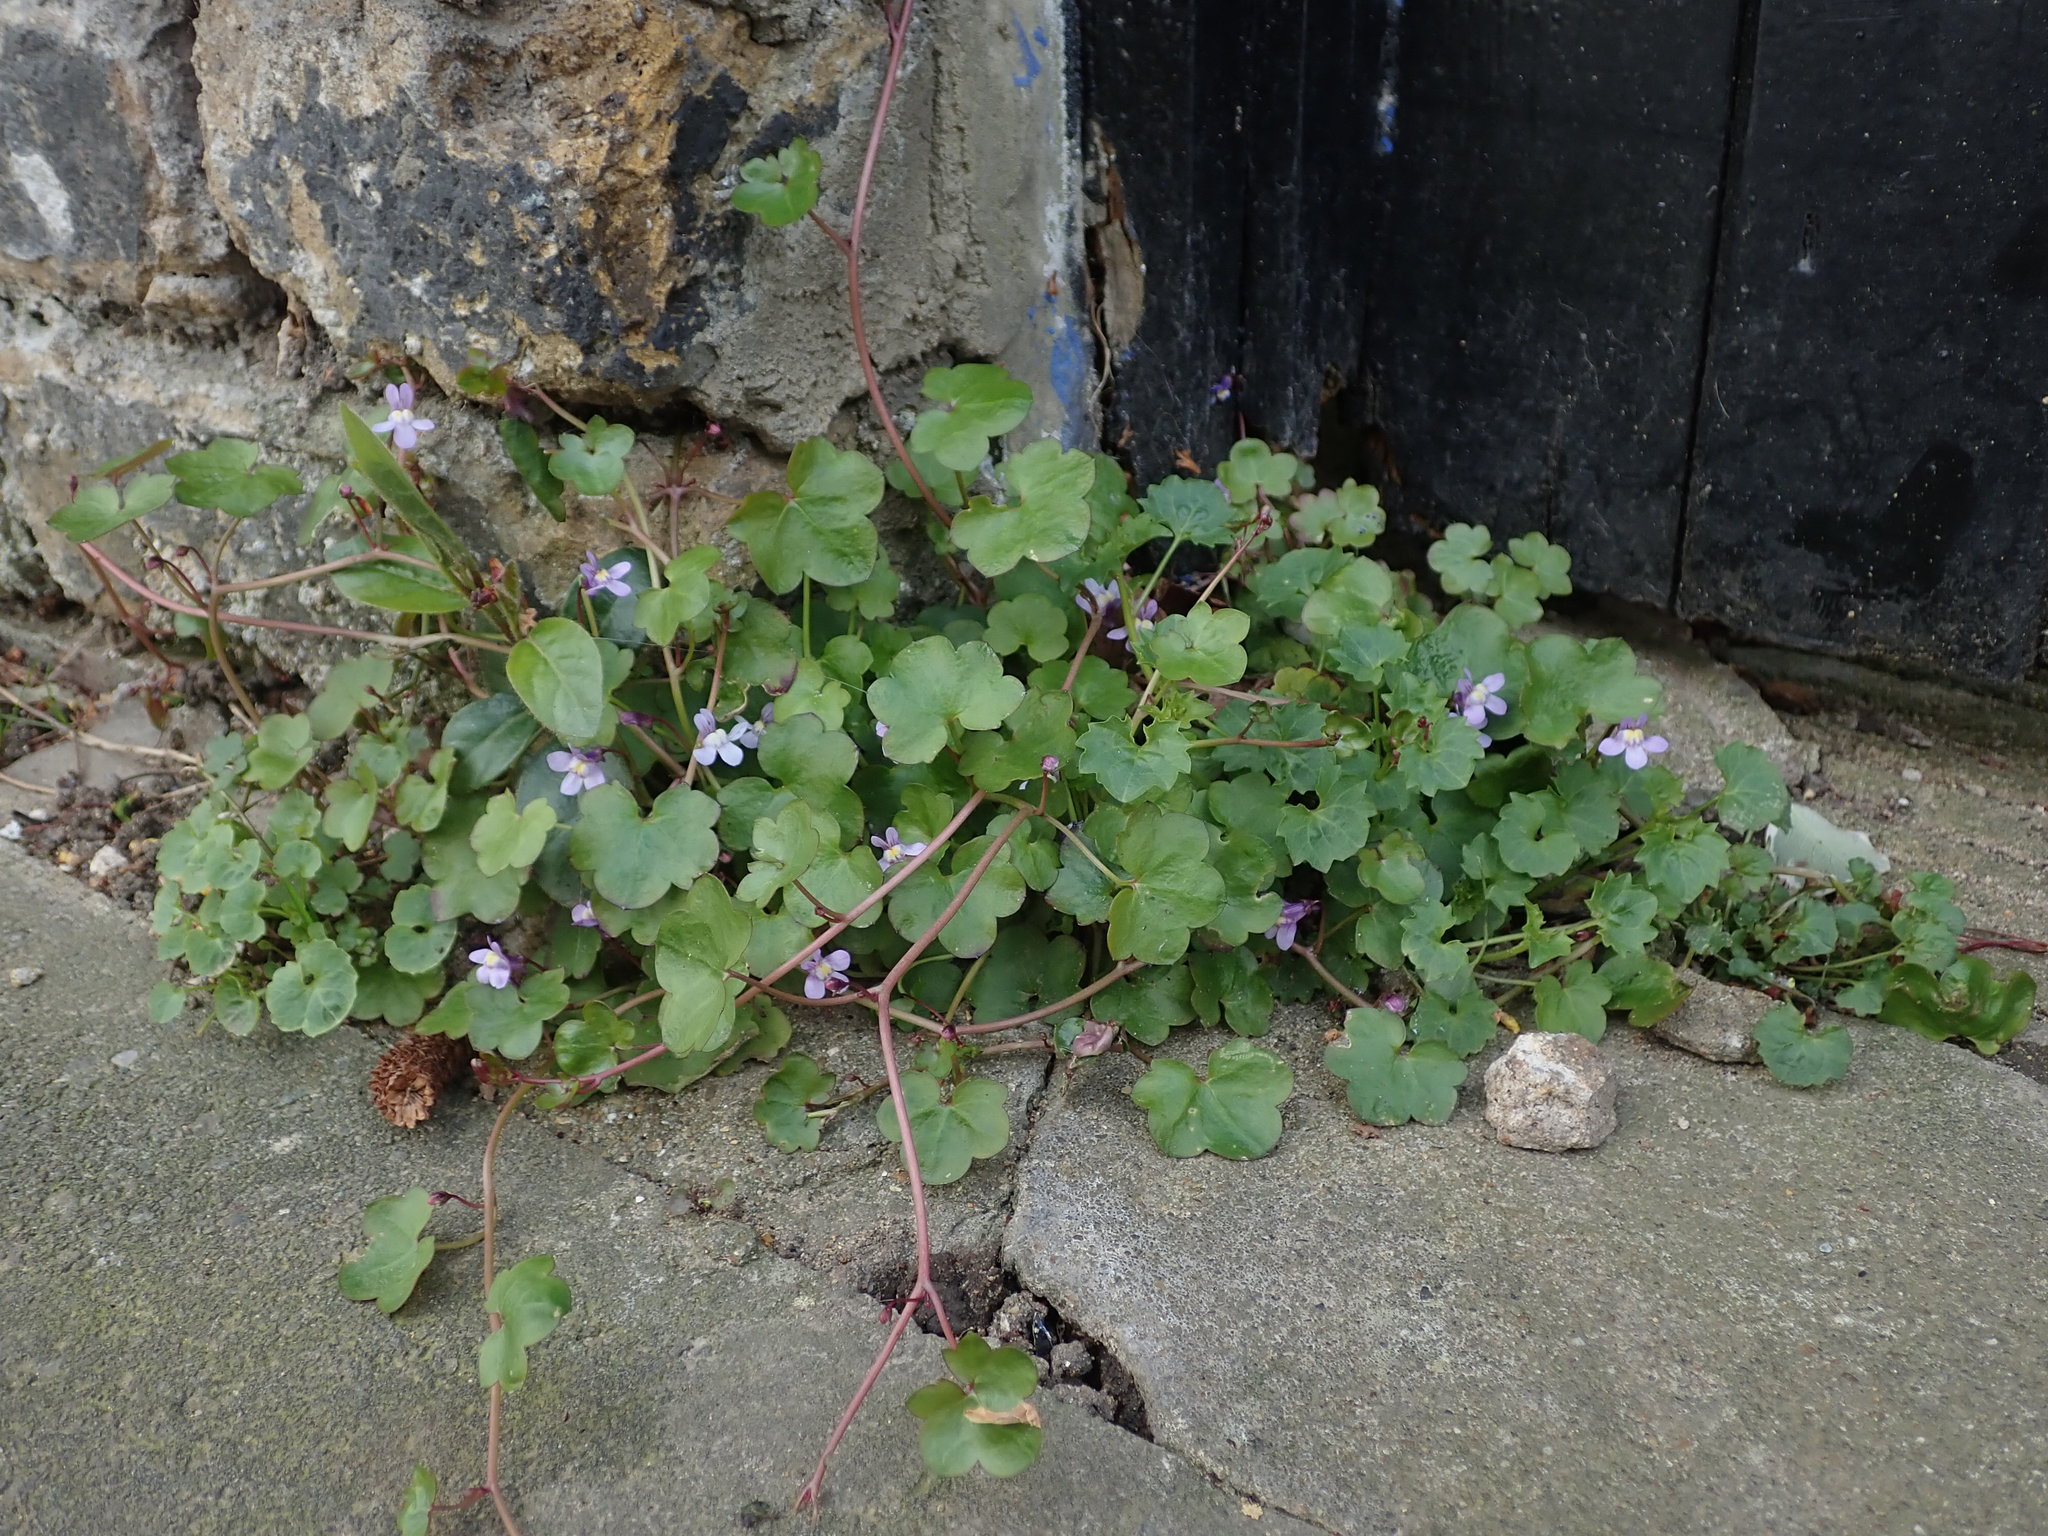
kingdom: Plantae
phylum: Tracheophyta
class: Magnoliopsida
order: Lamiales
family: Plantaginaceae
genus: Cymbalaria
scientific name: Cymbalaria muralis
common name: Ivy-leaved toadflax
